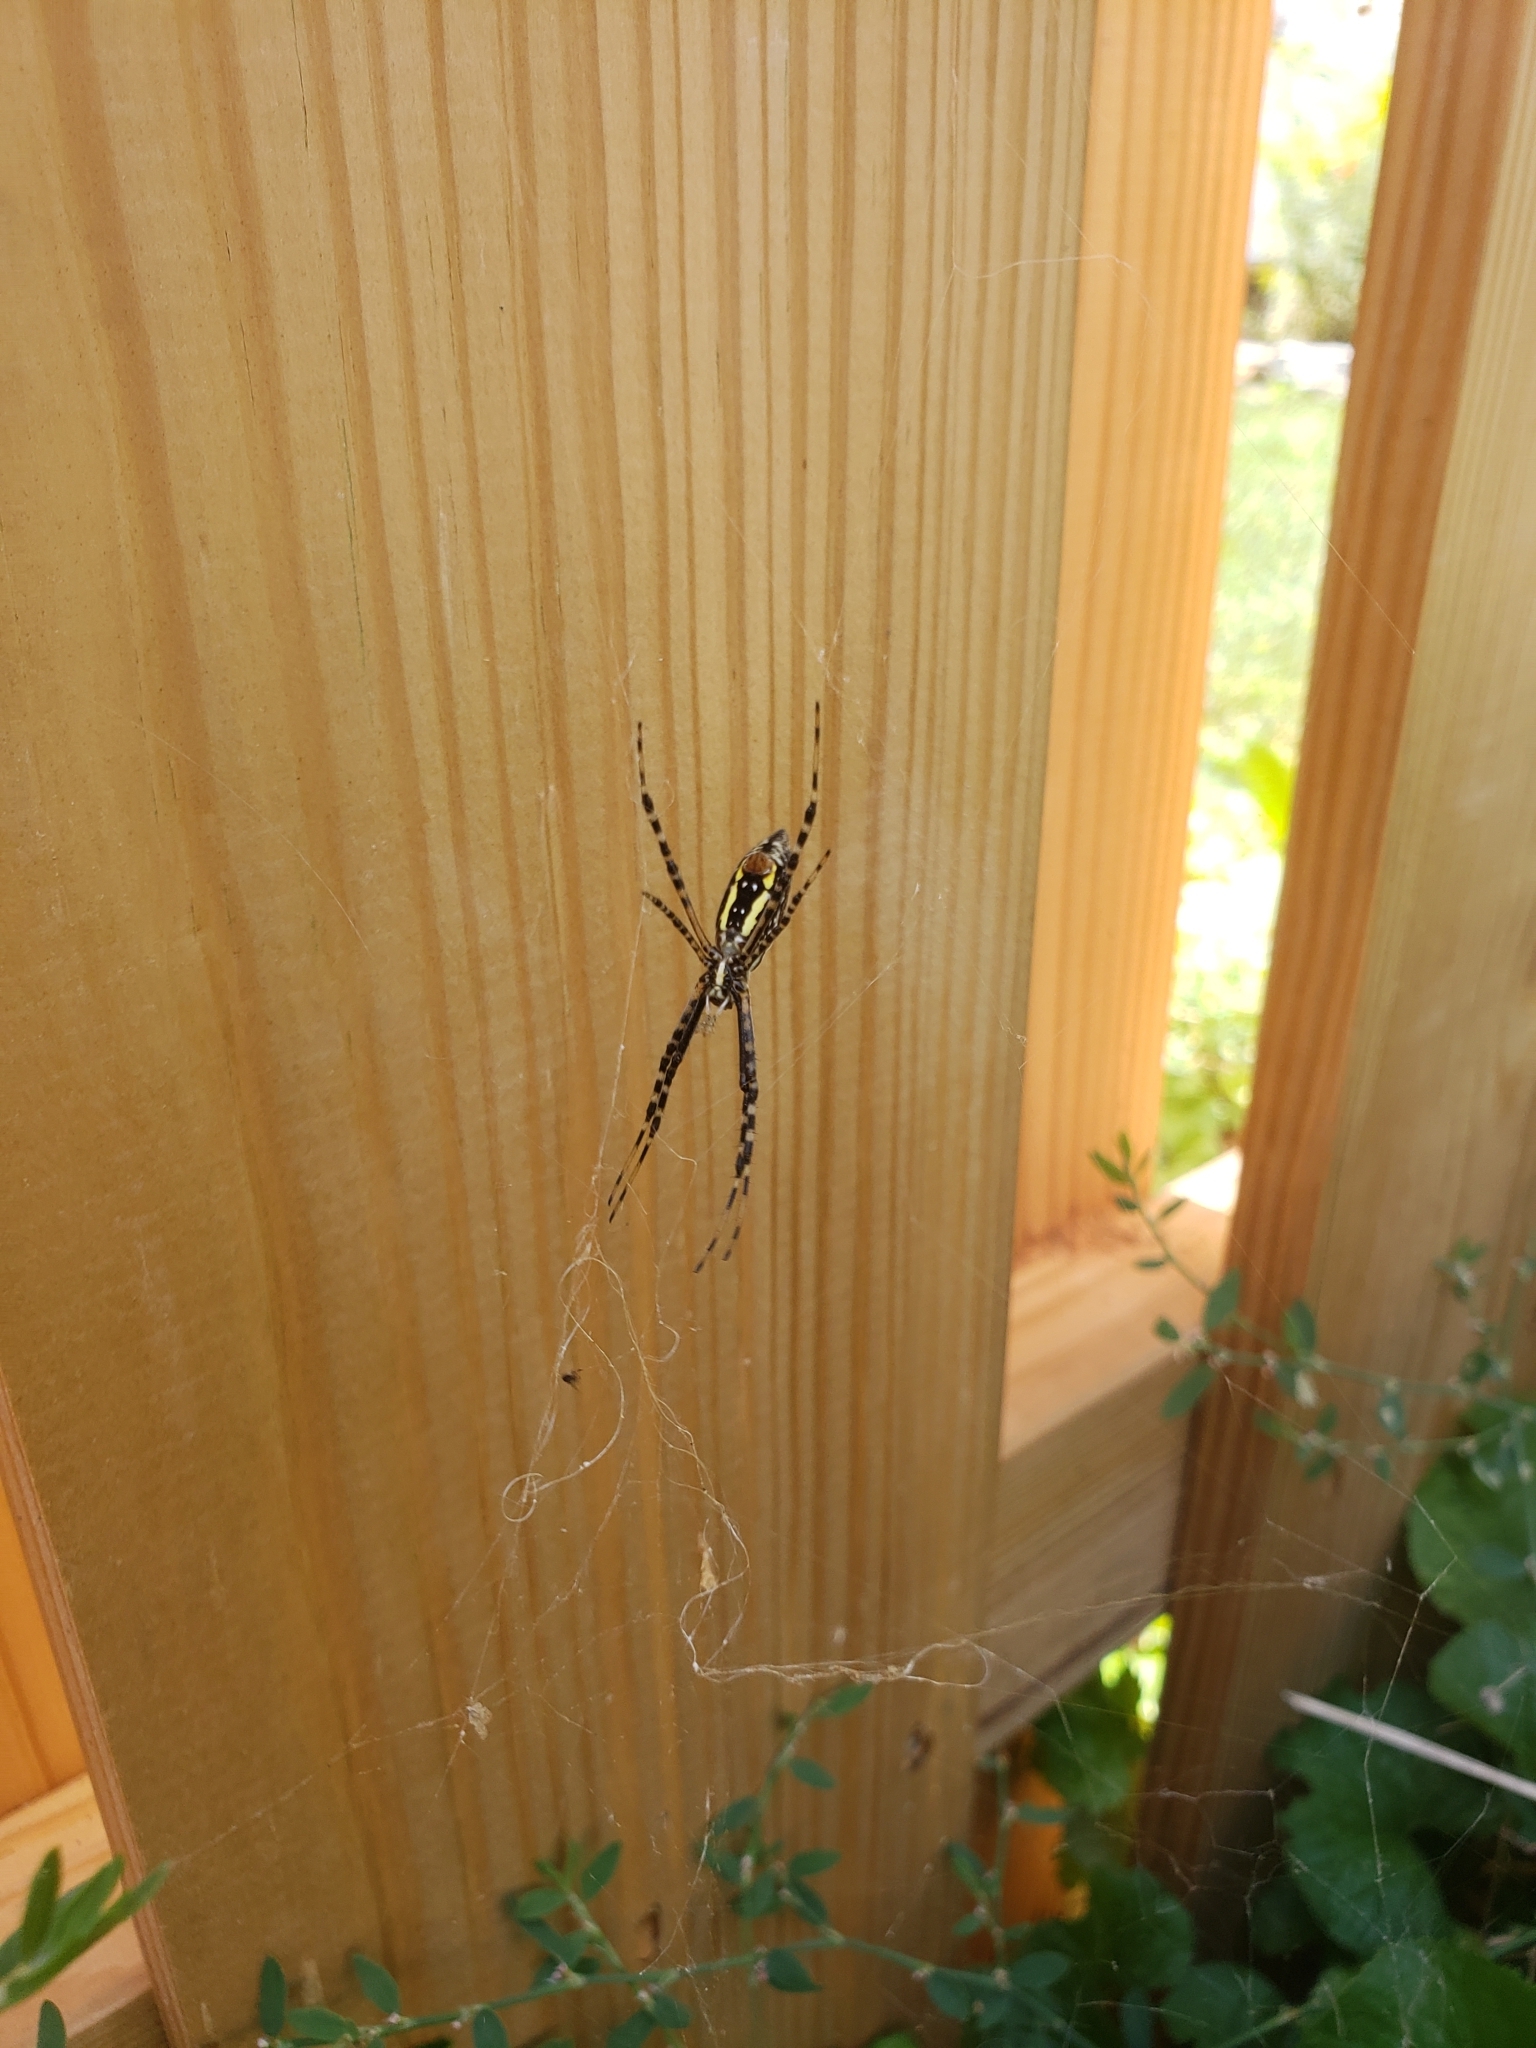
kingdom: Animalia
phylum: Arthropoda
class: Arachnida
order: Araneae
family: Araneidae
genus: Argiope
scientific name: Argiope trifasciata
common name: Banded garden spider
